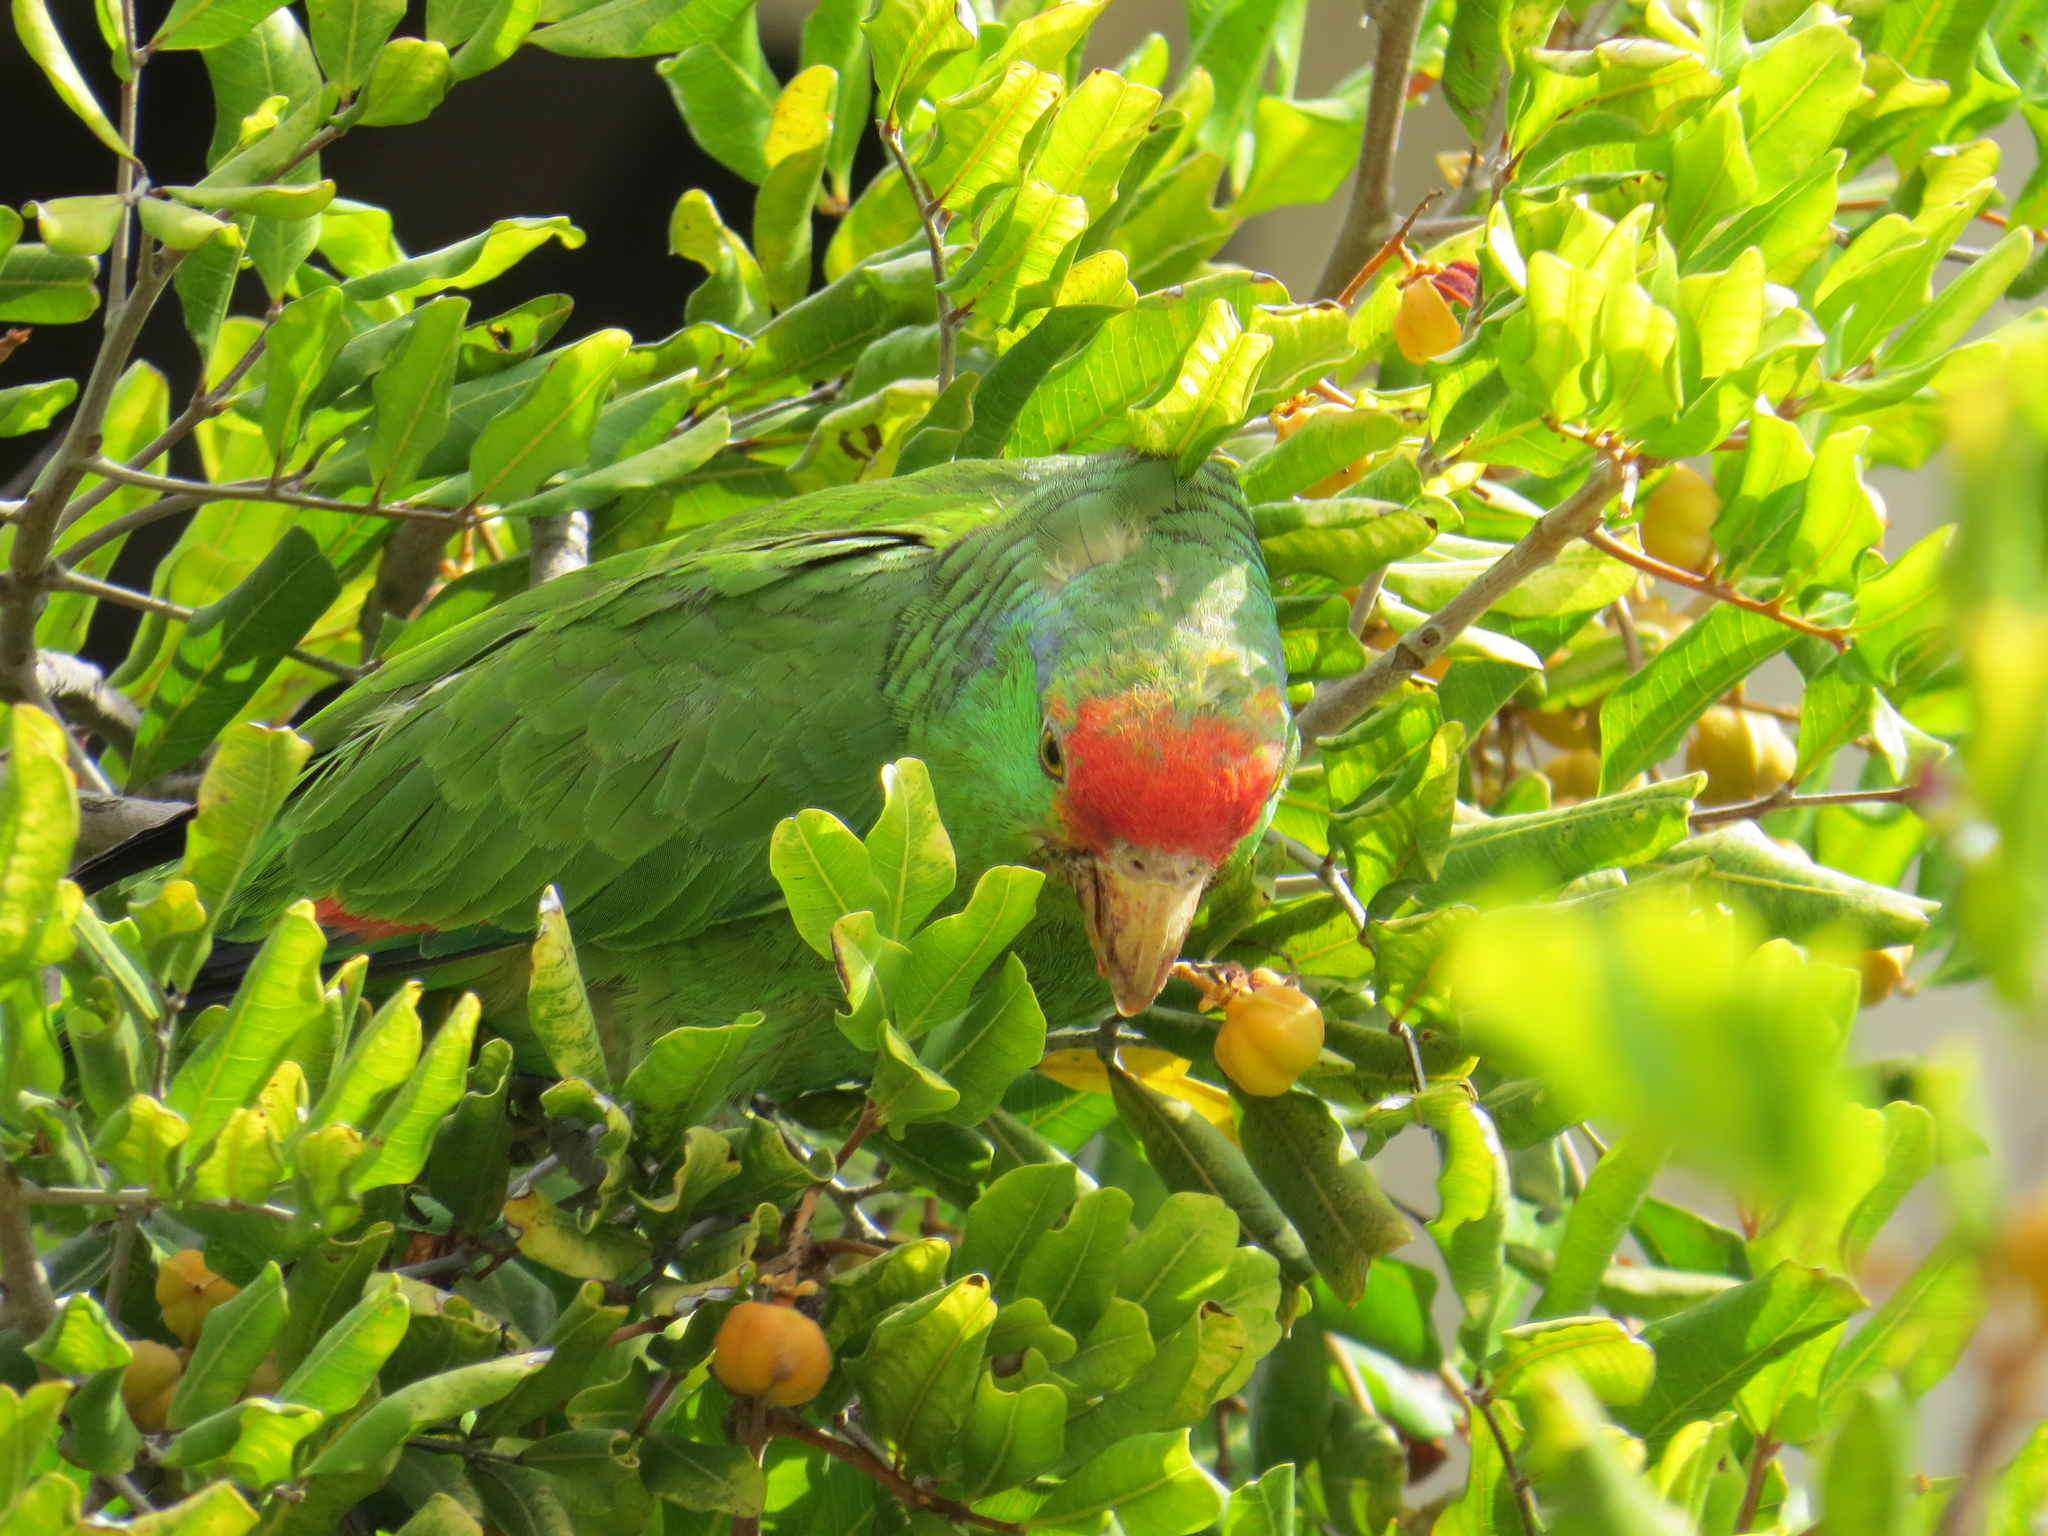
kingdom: Animalia
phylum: Chordata
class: Aves
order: Psittaciformes
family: Psittacidae
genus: Amazona
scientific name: Amazona viridigenalis
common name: Red-crowned amazon
